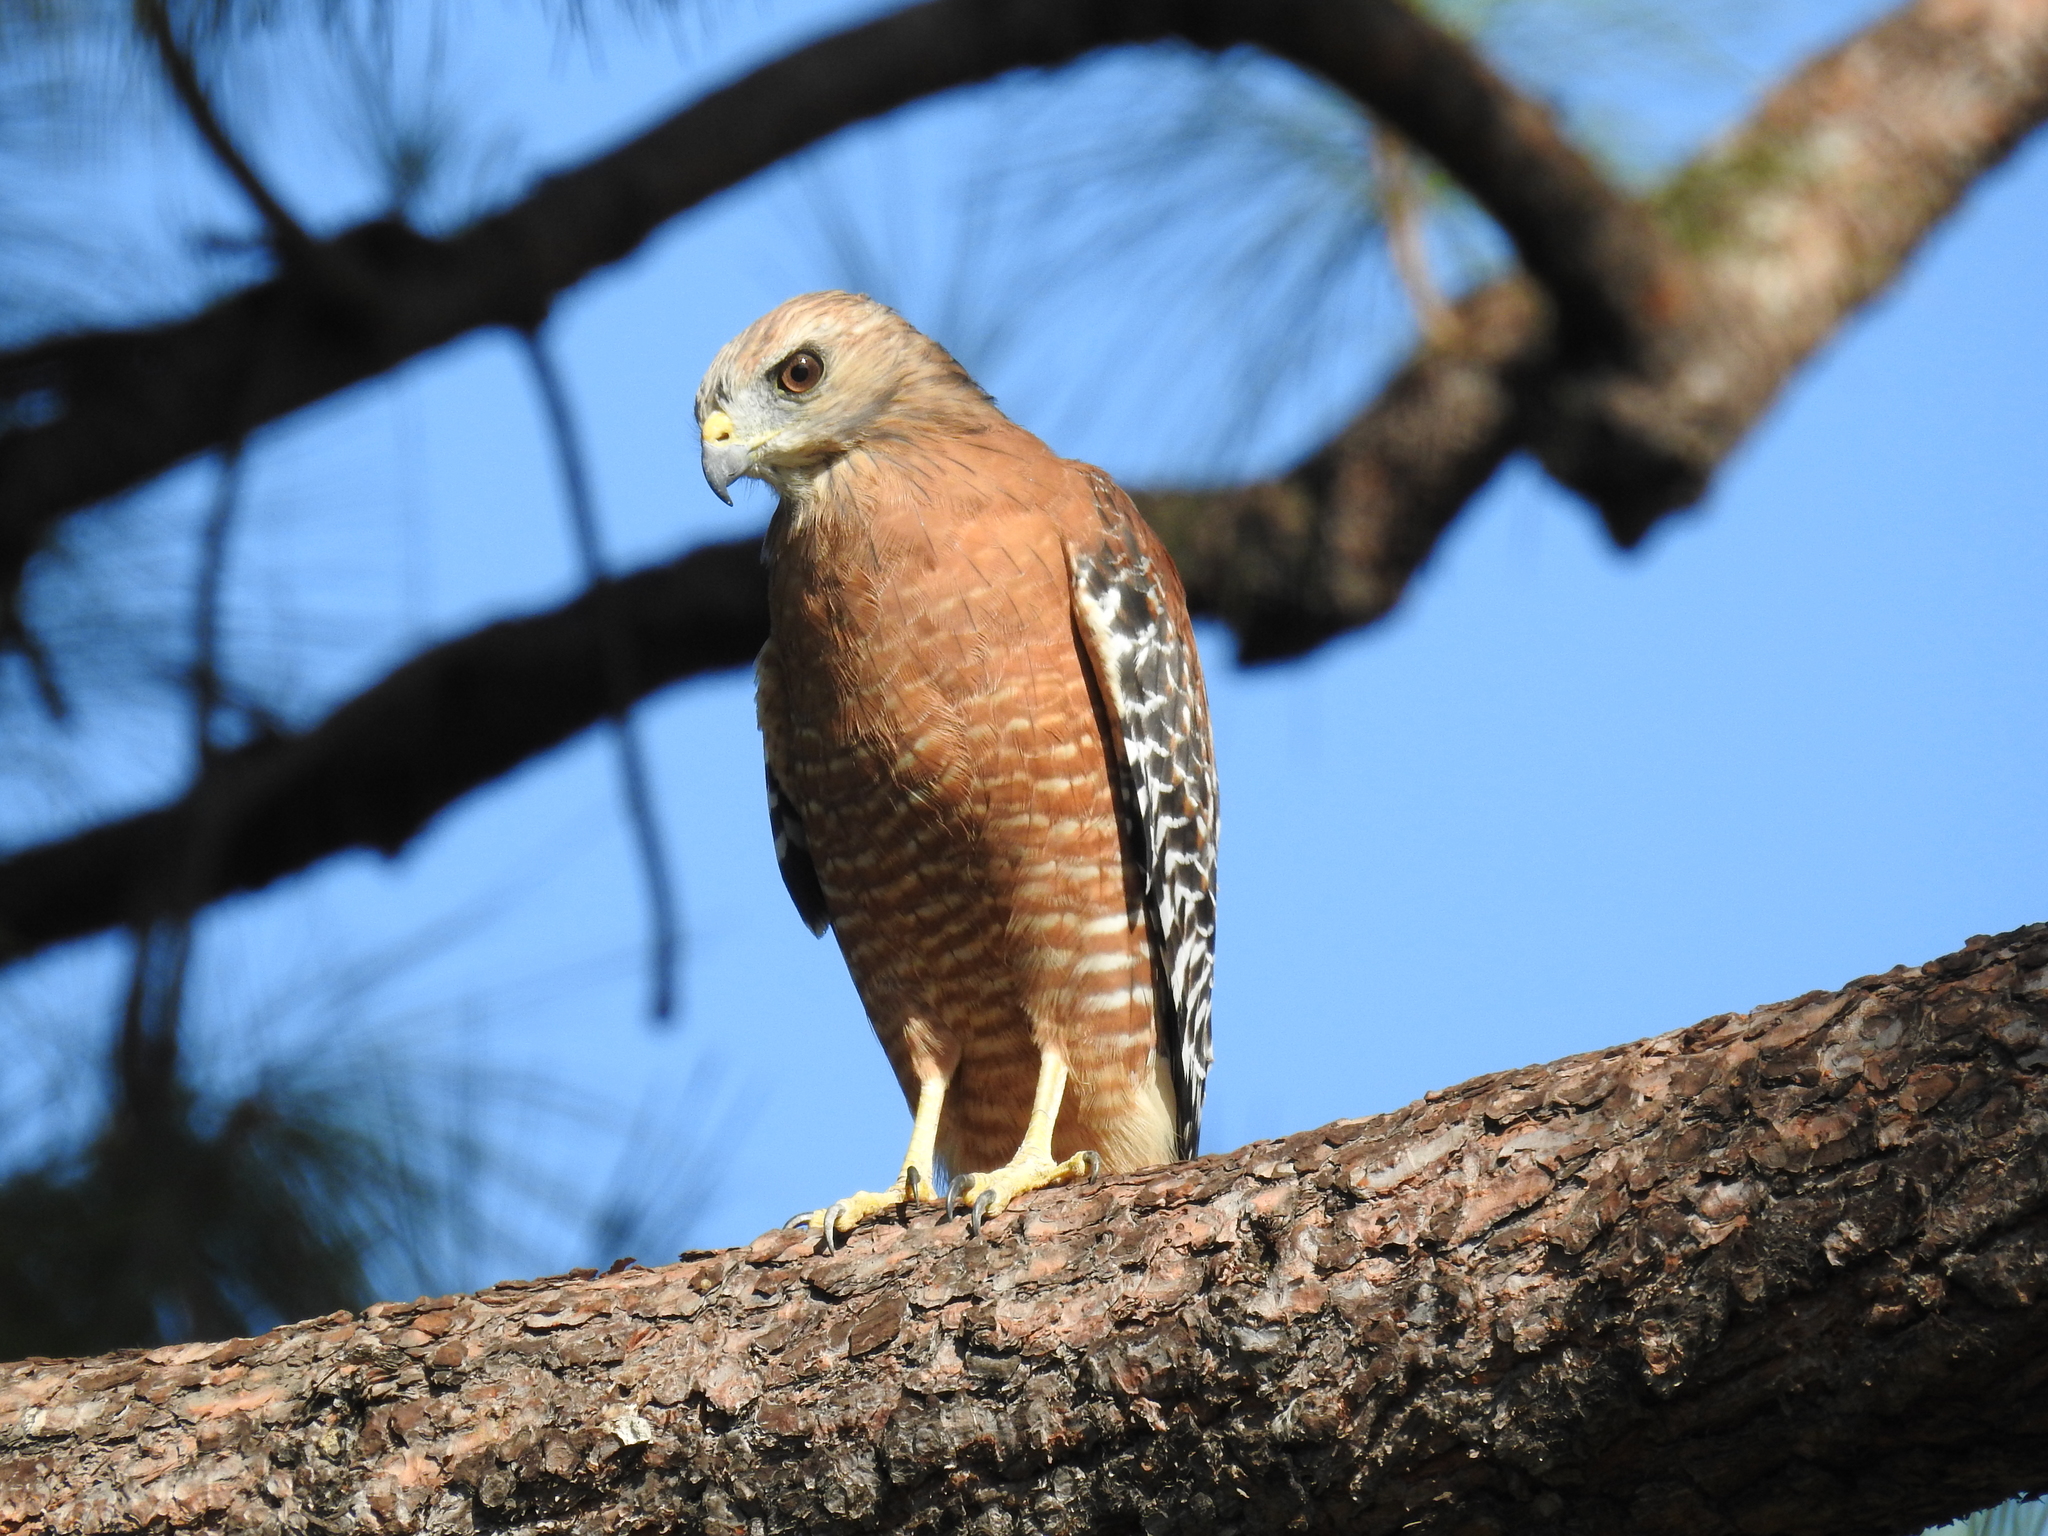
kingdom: Animalia
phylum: Chordata
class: Aves
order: Accipitriformes
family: Accipitridae
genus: Buteo
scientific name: Buteo lineatus
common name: Red-shouldered hawk
